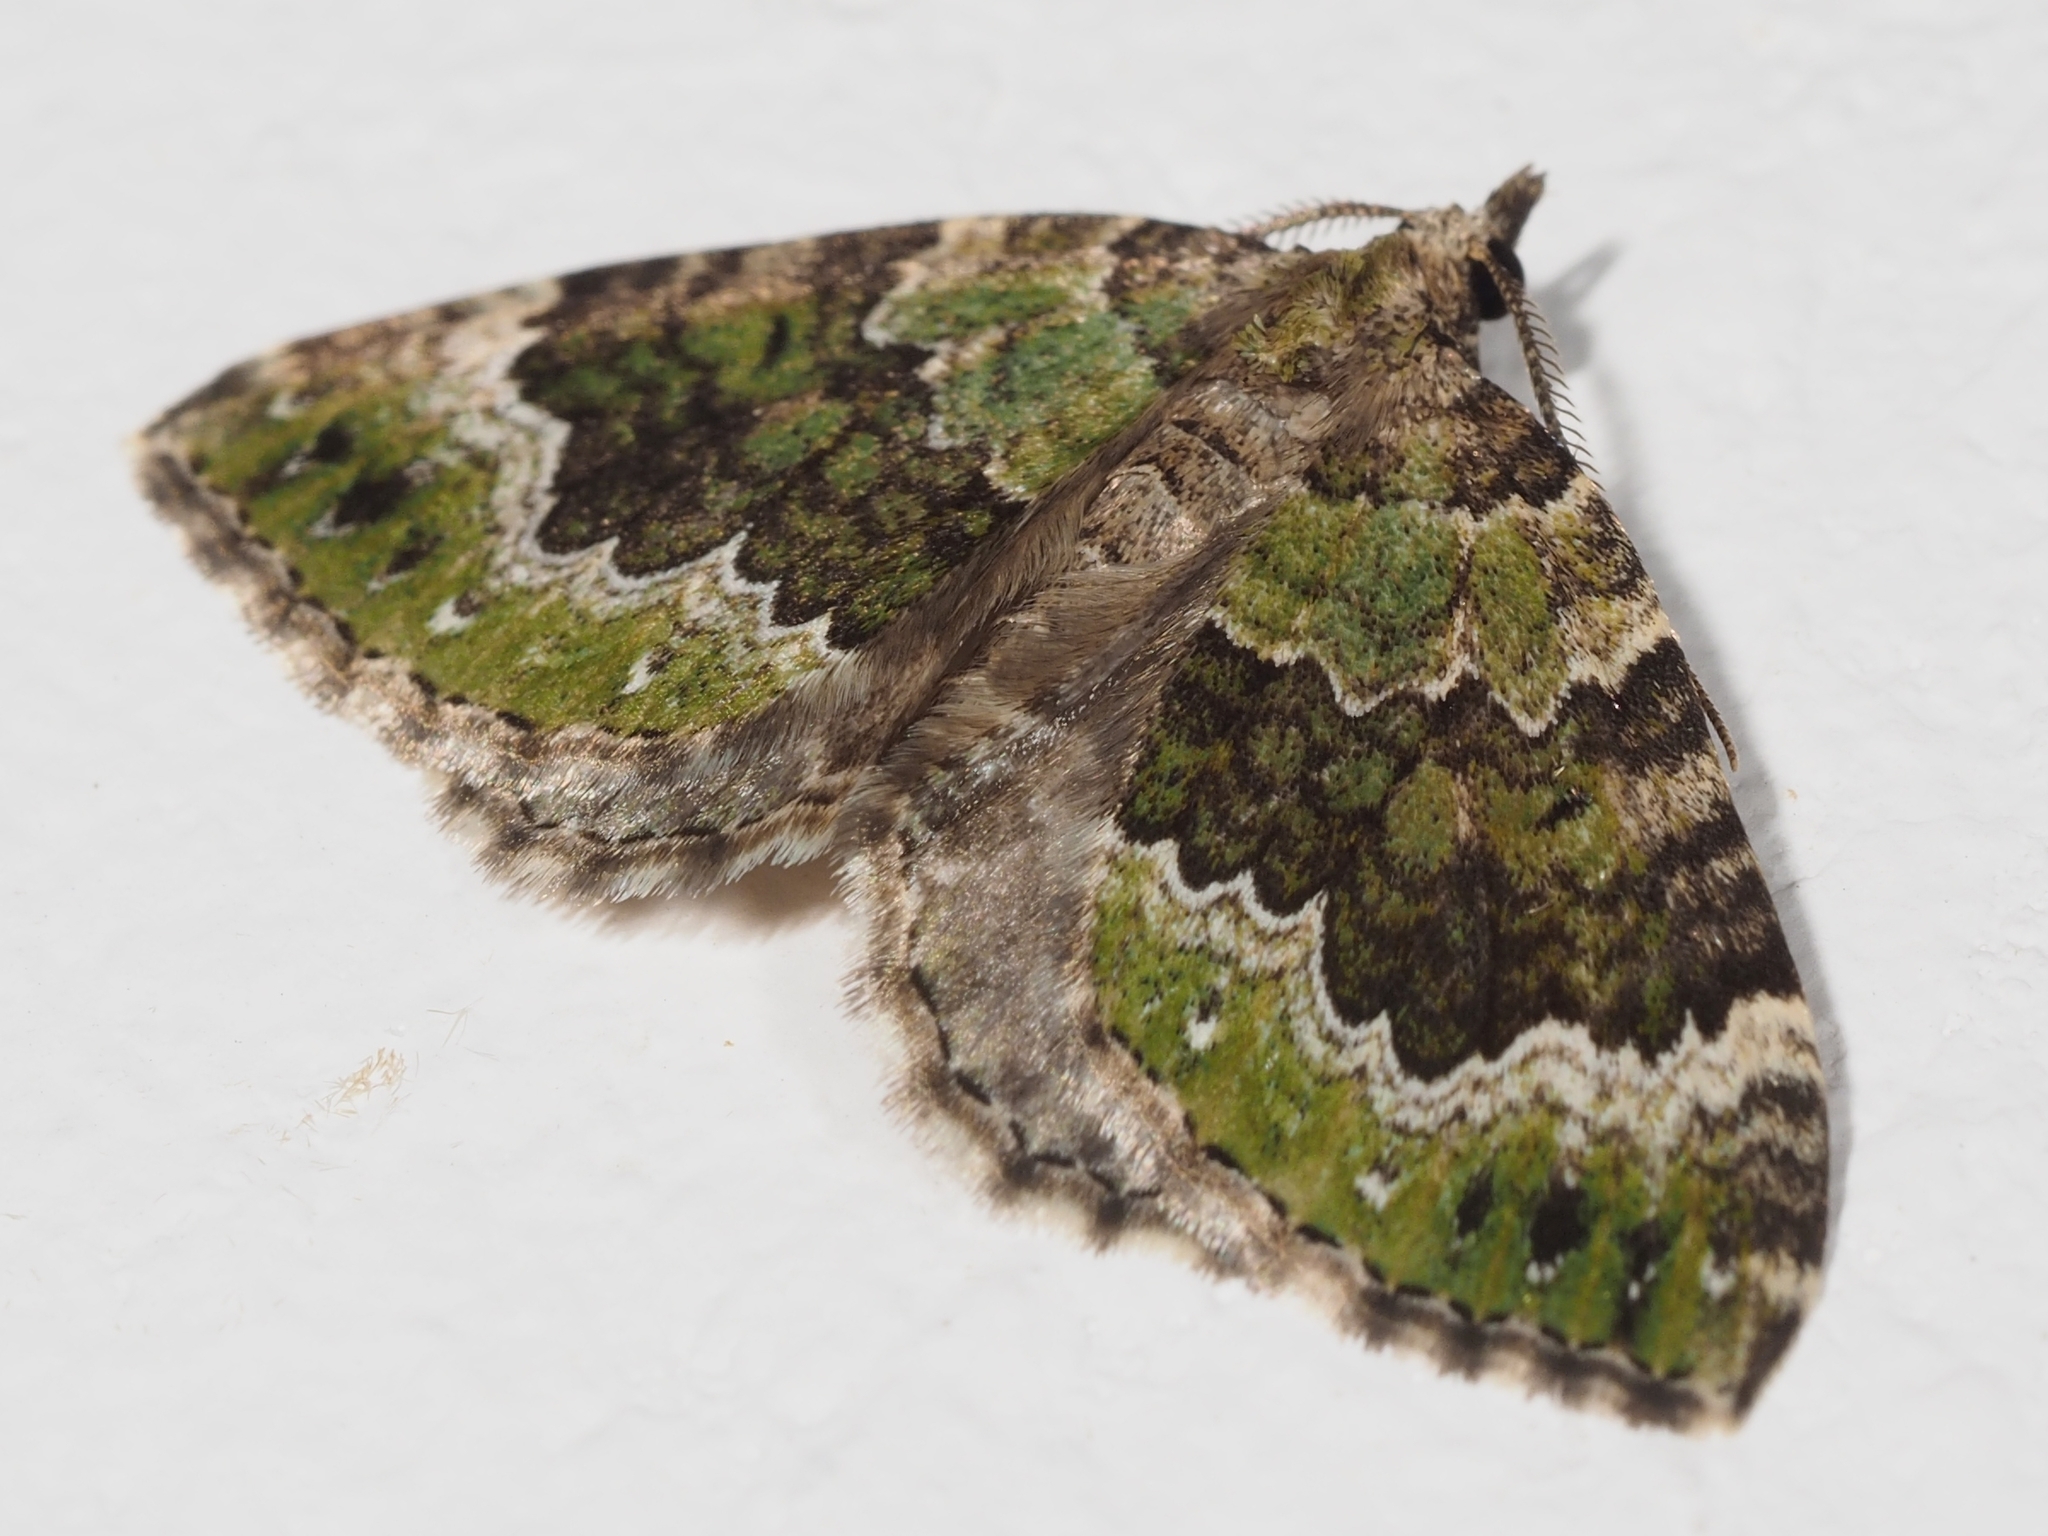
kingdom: Animalia
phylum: Arthropoda
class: Insecta
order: Lepidoptera
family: Geometridae
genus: Colostygia
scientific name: Colostygia olivata
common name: Beech-green carpet
